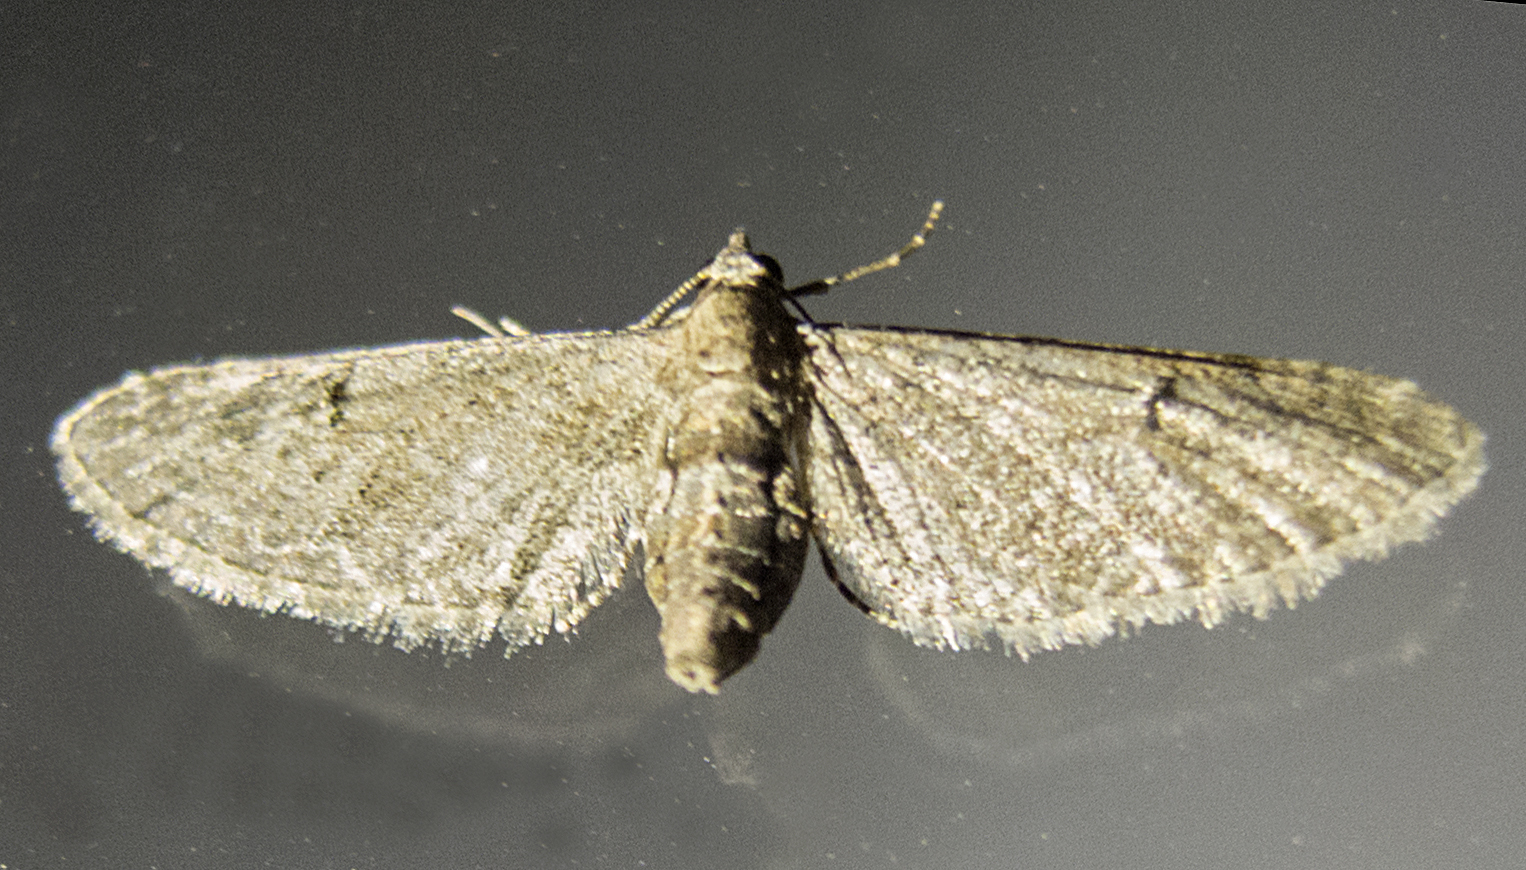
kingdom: Animalia
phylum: Arthropoda
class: Insecta
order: Lepidoptera
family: Geometridae
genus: Eupithecia
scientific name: Eupithecia innotata
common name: Angle-barred pug
